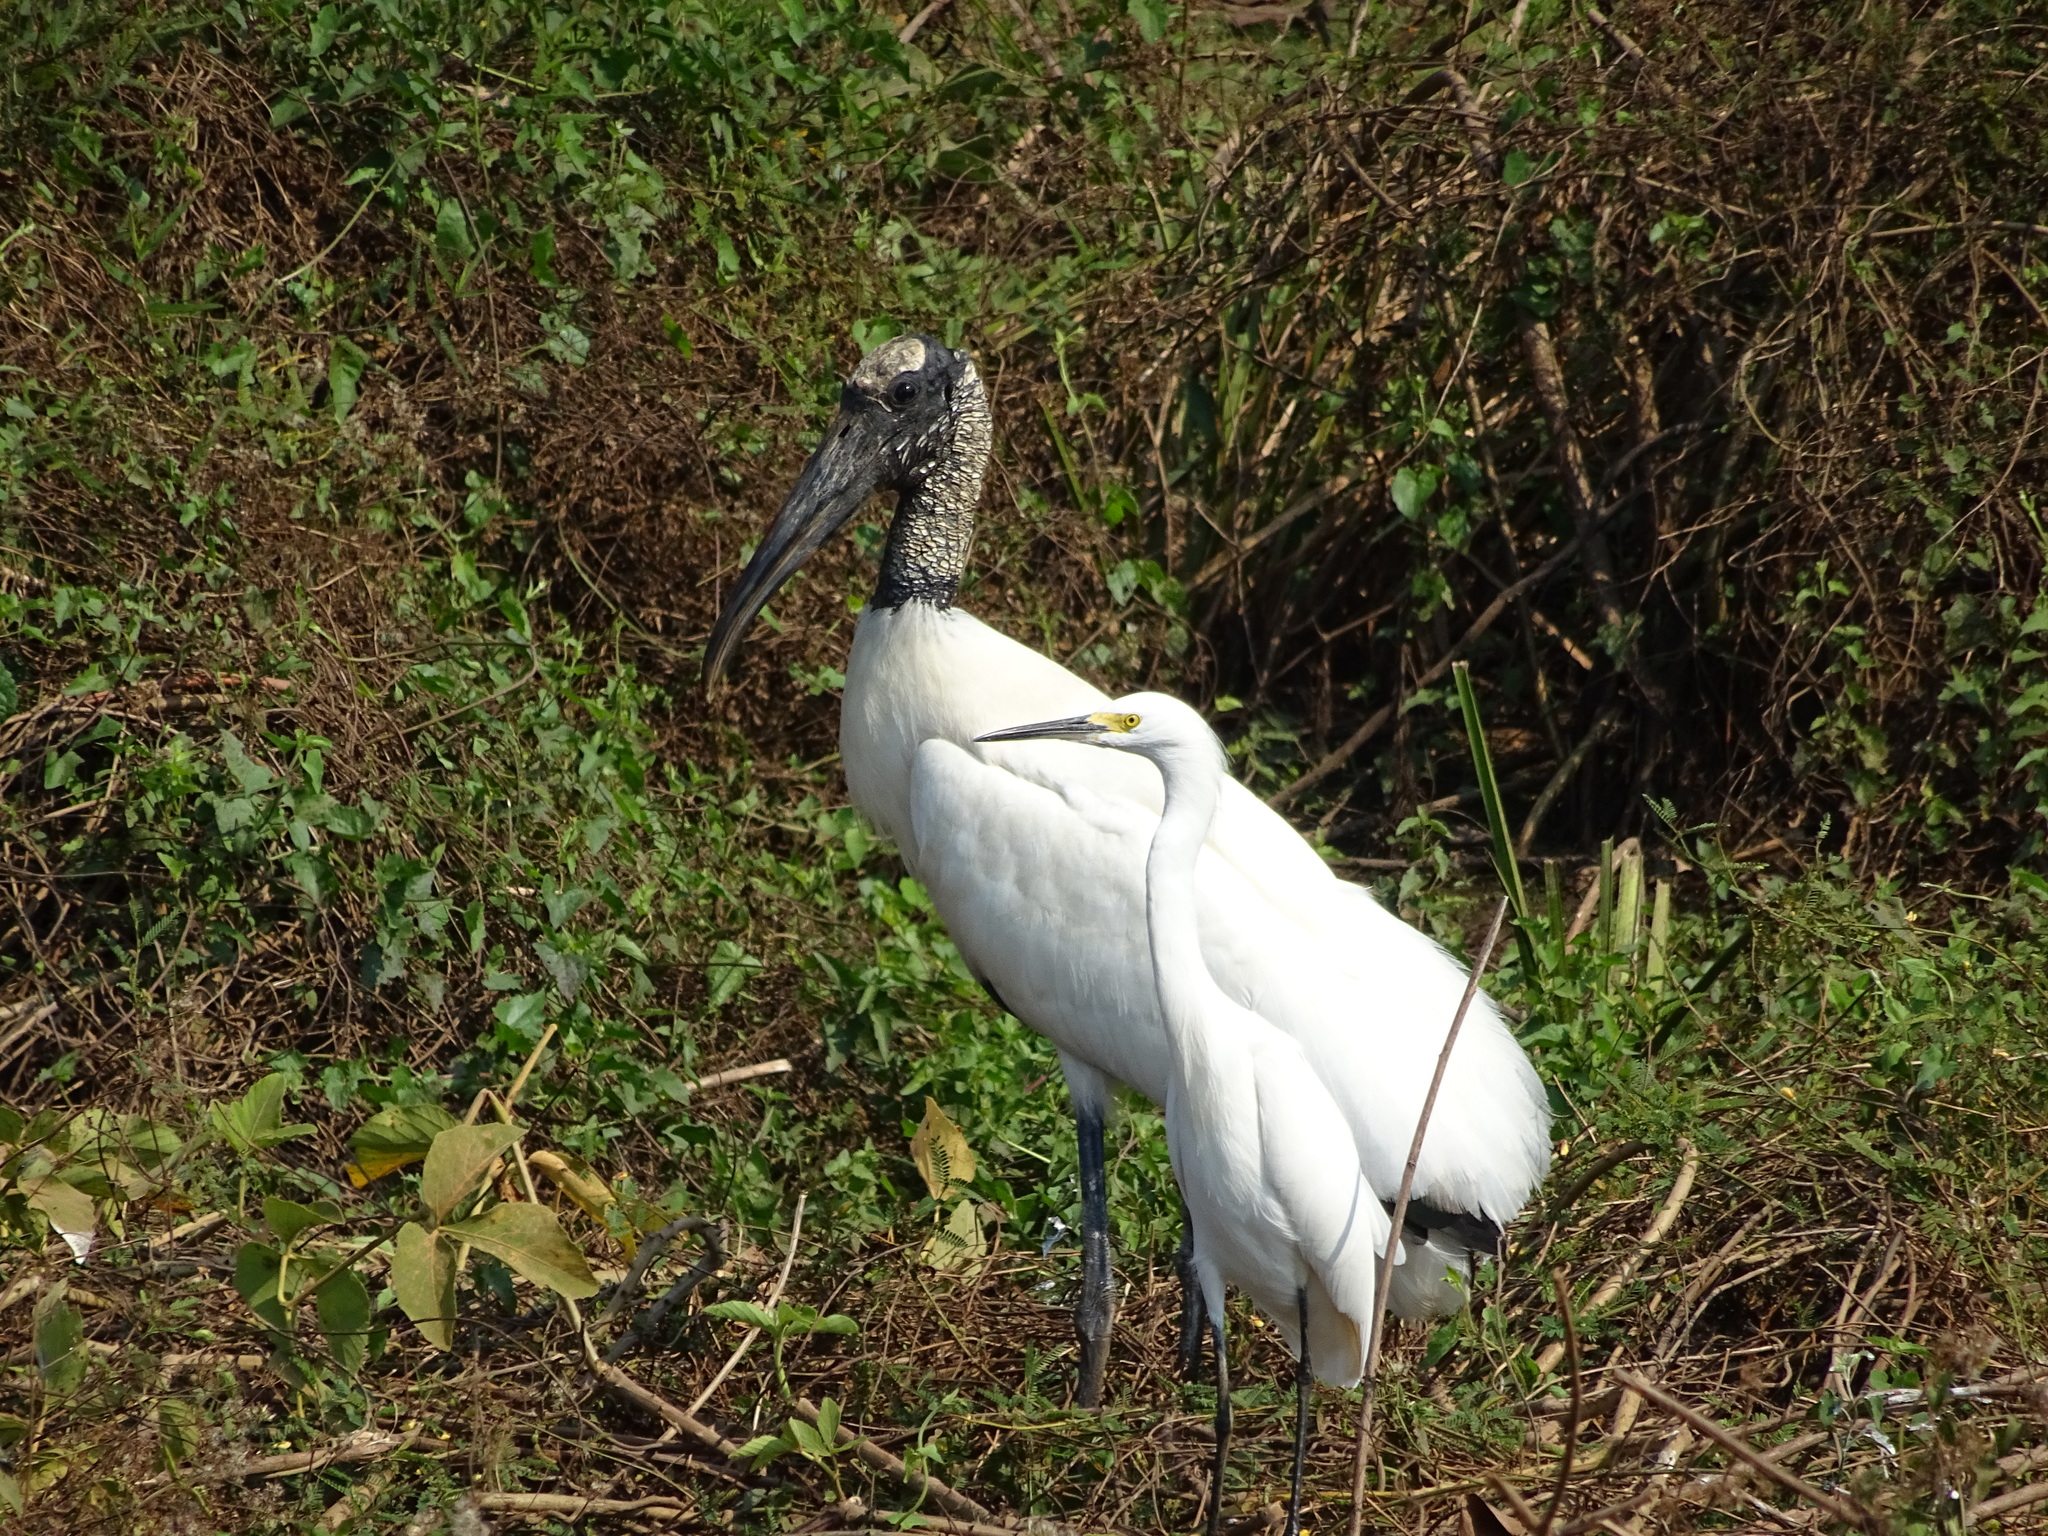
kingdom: Animalia
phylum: Chordata
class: Aves
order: Ciconiiformes
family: Ciconiidae
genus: Mycteria
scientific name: Mycteria americana
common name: Wood stork
